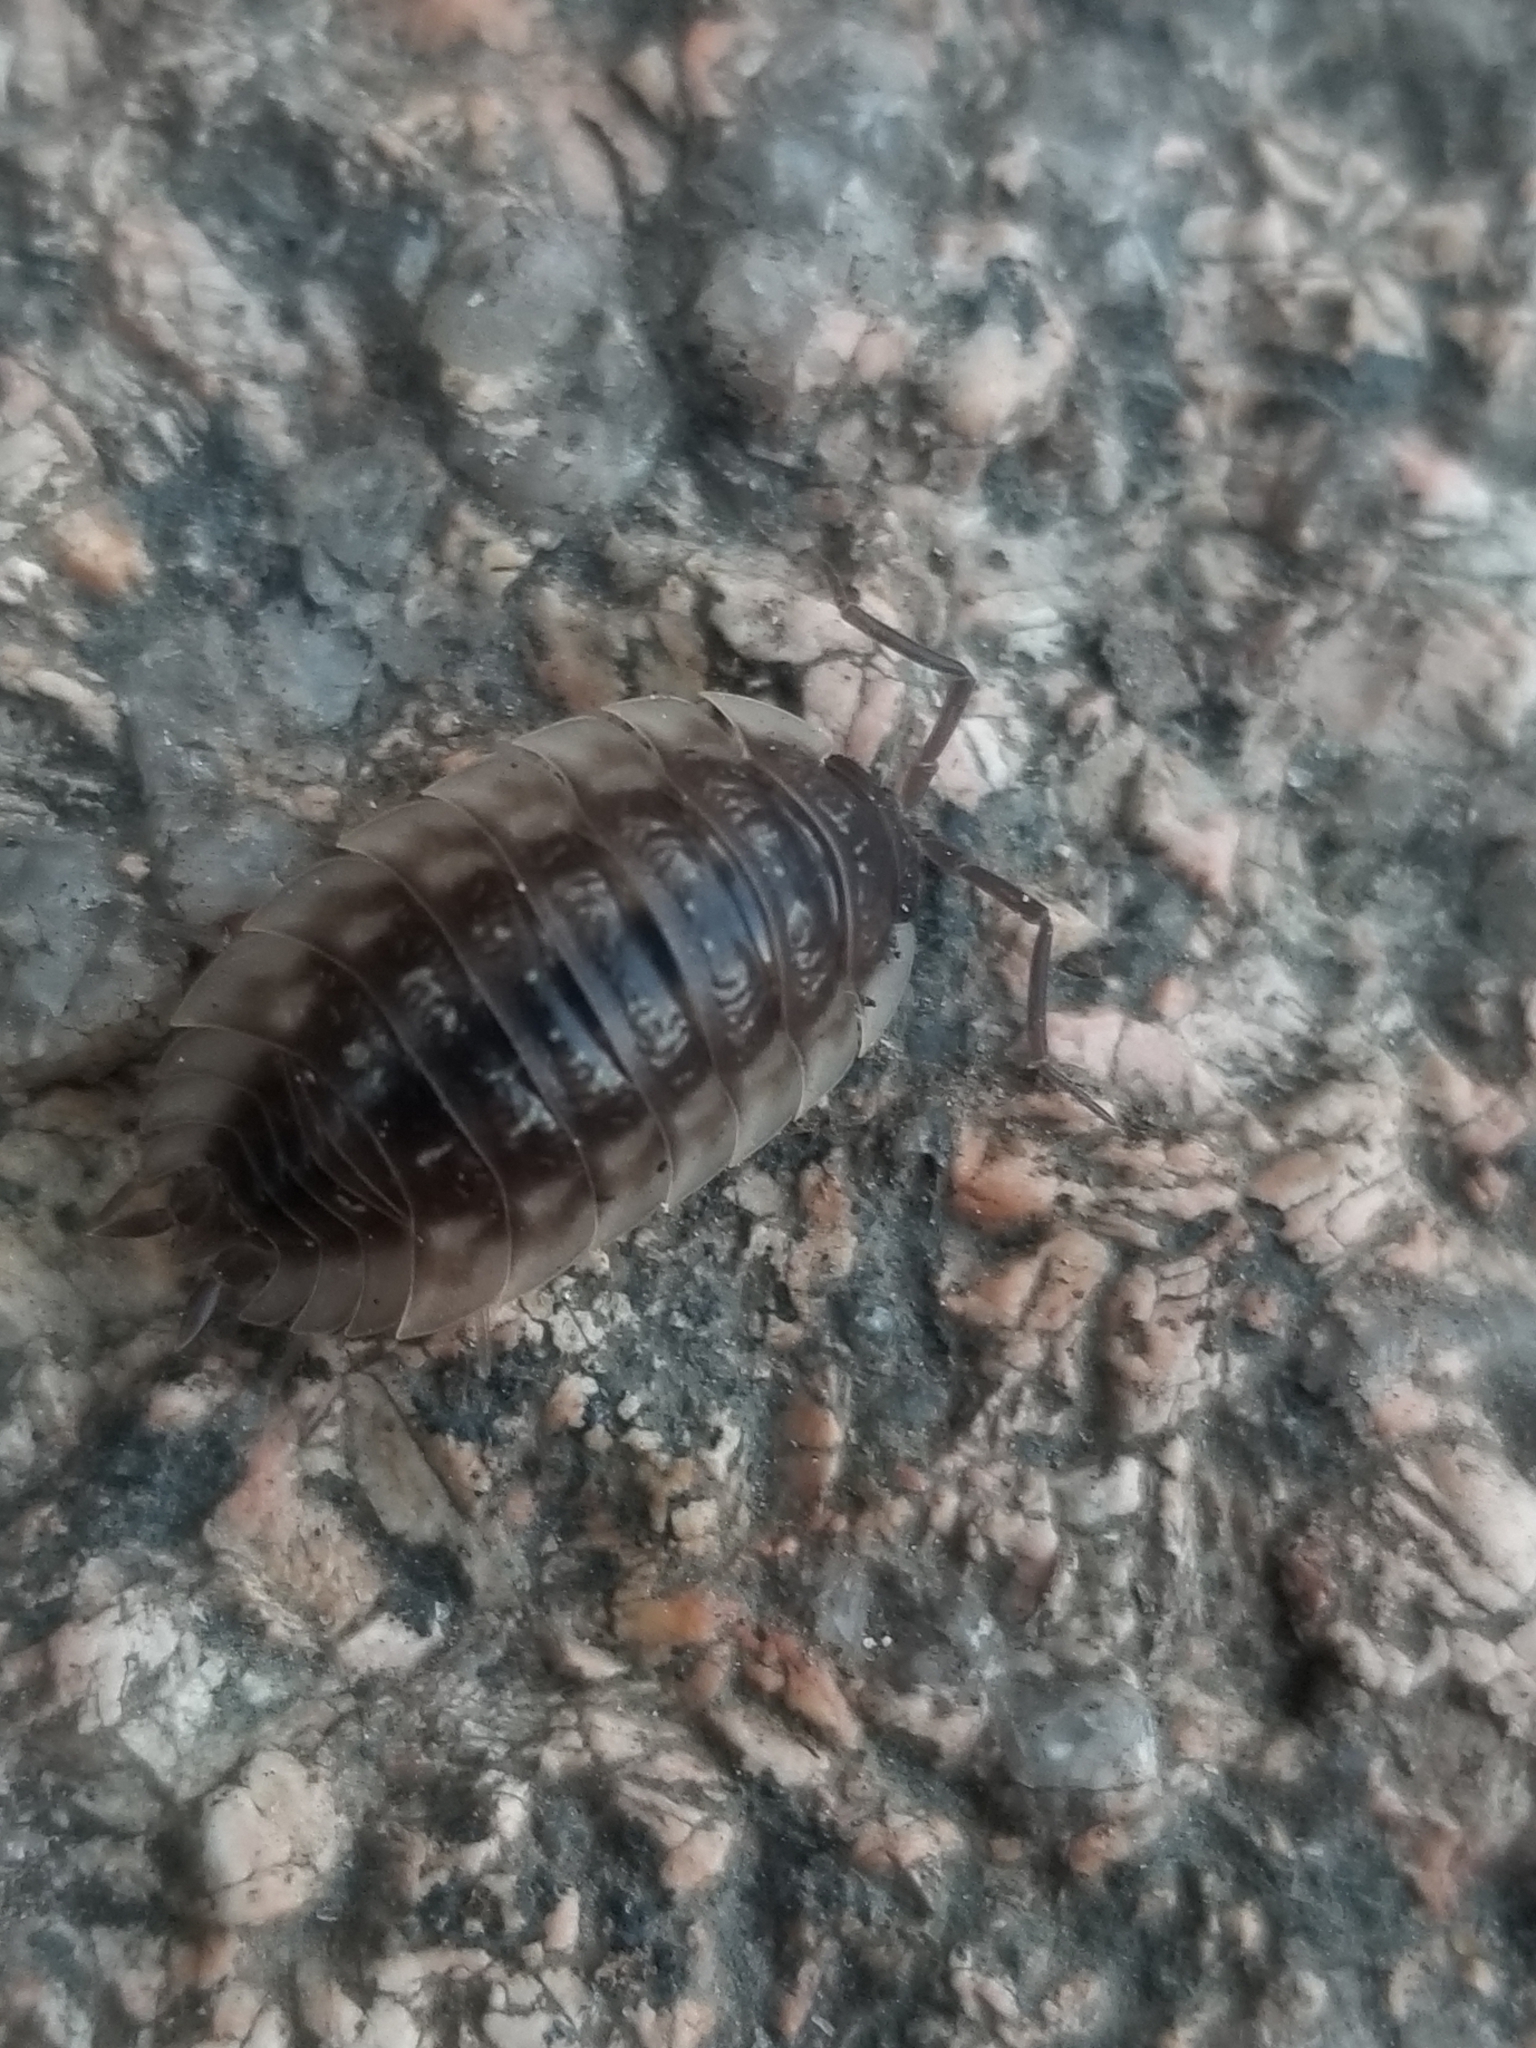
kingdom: Animalia
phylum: Arthropoda
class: Malacostraca
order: Isopoda
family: Oniscidae
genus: Oniscus
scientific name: Oniscus asellus
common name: Common shiny woodlouse
